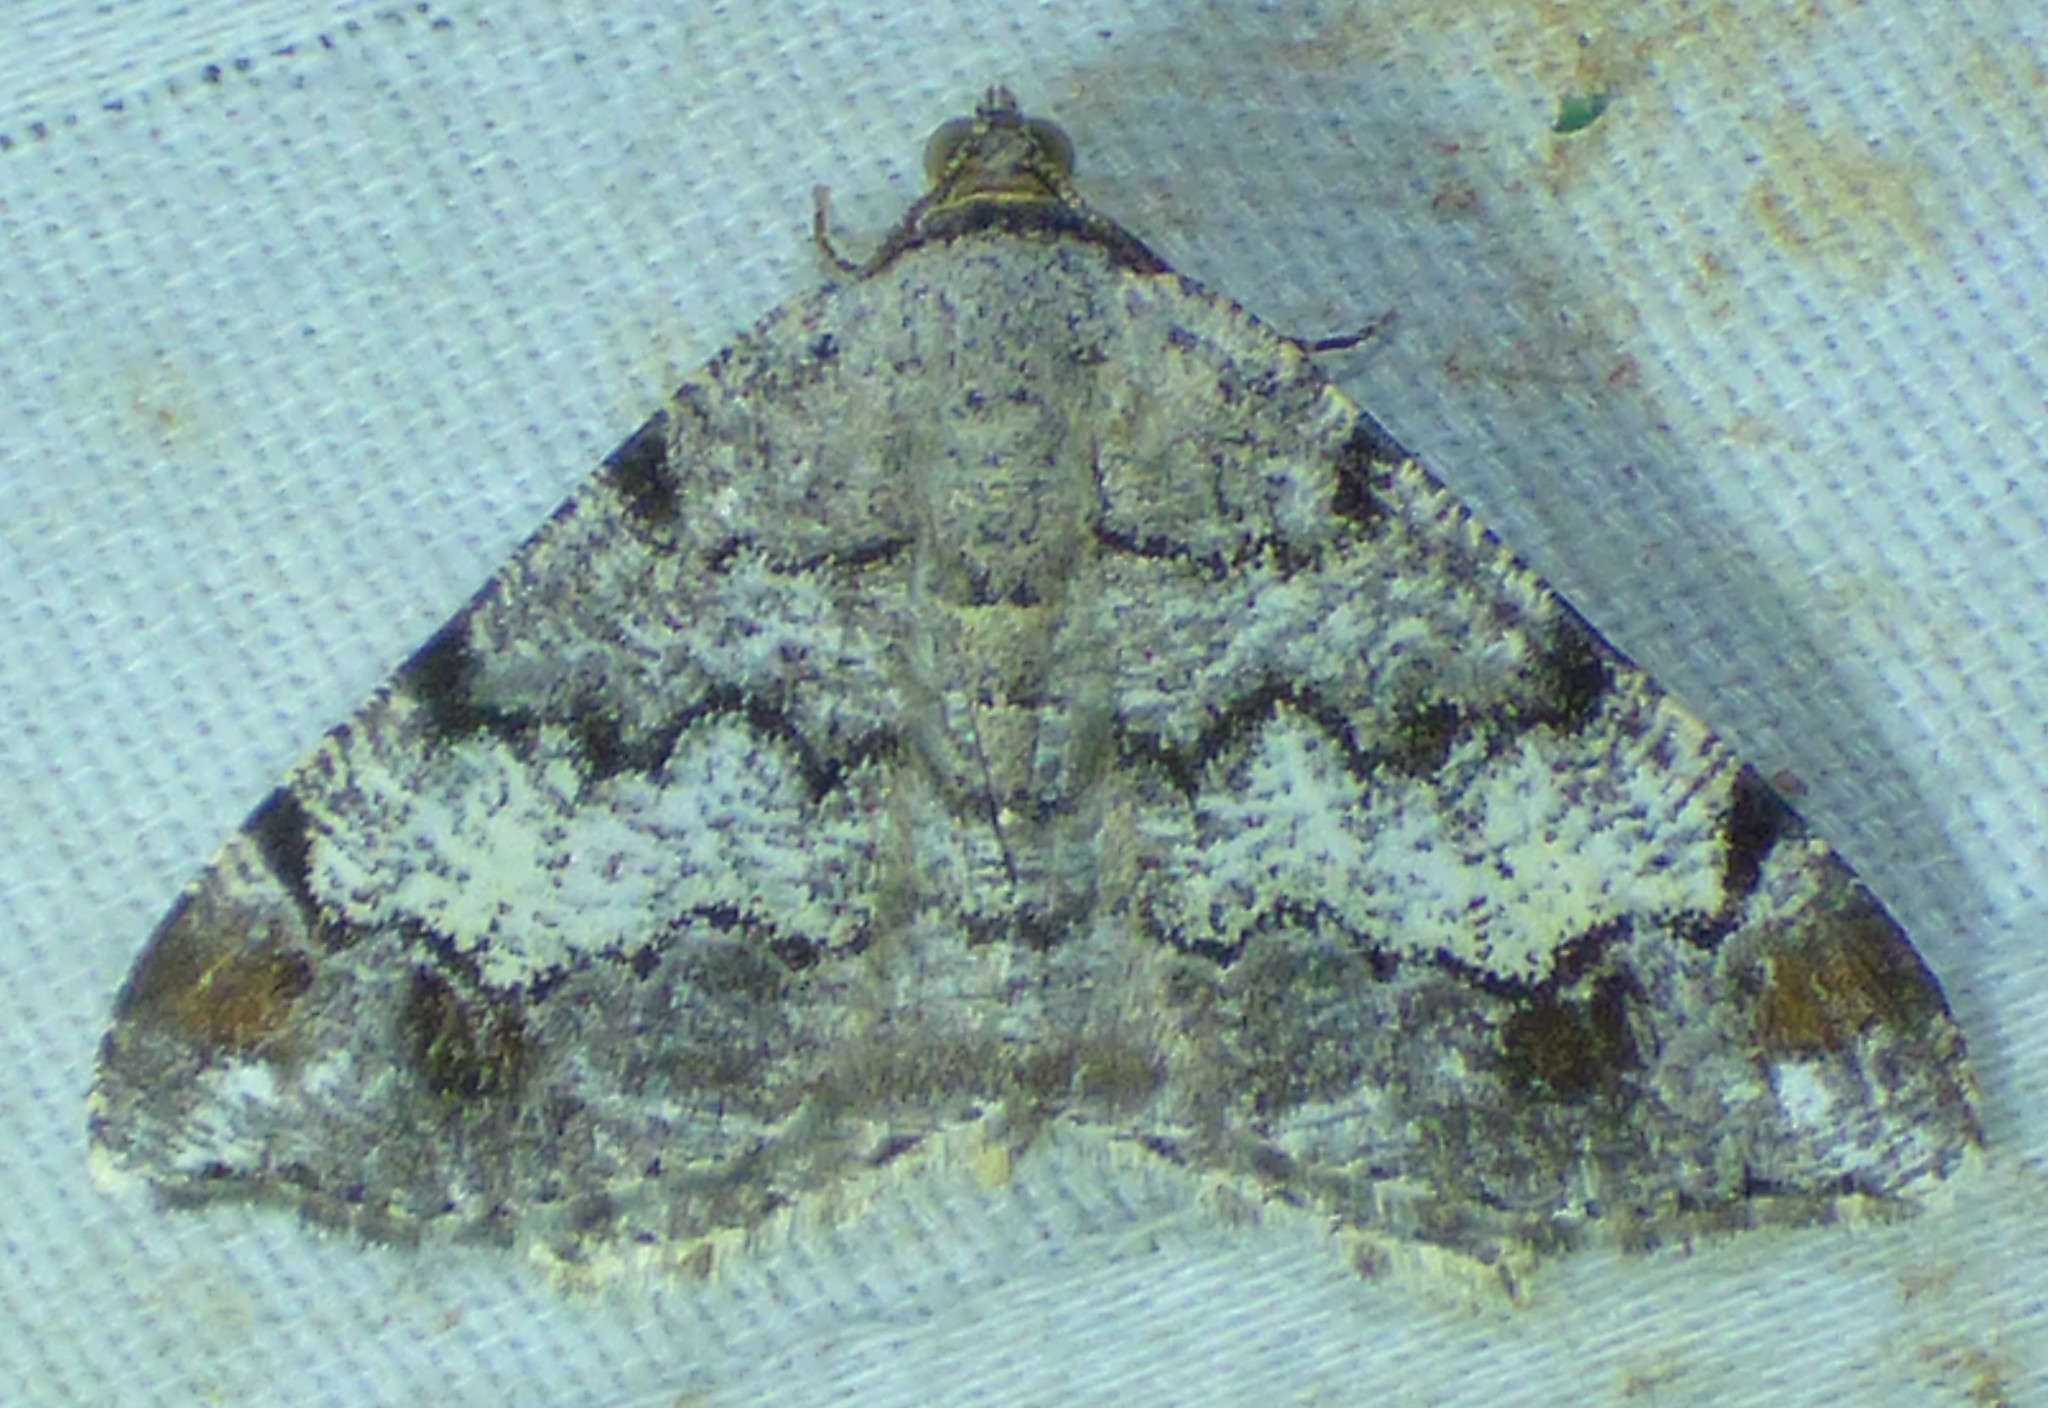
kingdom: Animalia
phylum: Arthropoda
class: Insecta
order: Lepidoptera
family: Geometridae
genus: Macaria
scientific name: Macaria granitata
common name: Granite moth
